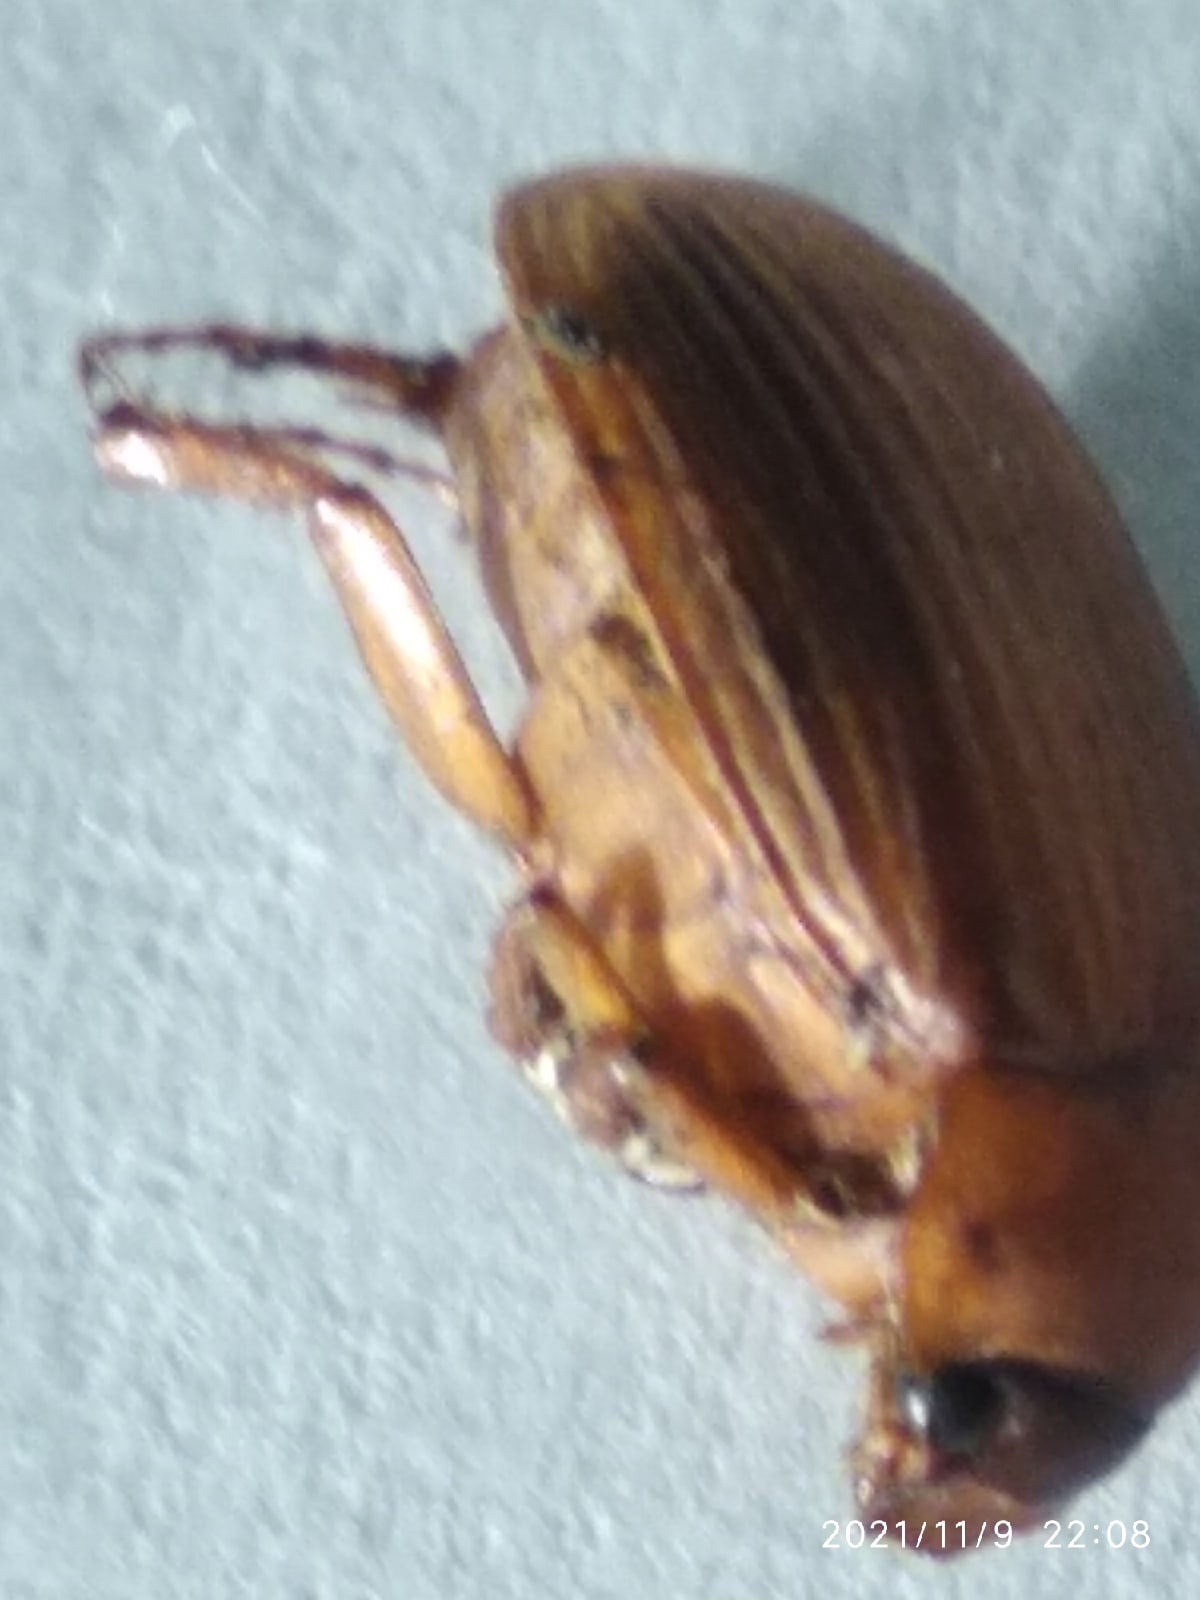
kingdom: Animalia
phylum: Arthropoda
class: Insecta
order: Coleoptera
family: Scarabaeidae
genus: Serica
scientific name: Serica brunnea
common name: Brown chafer
